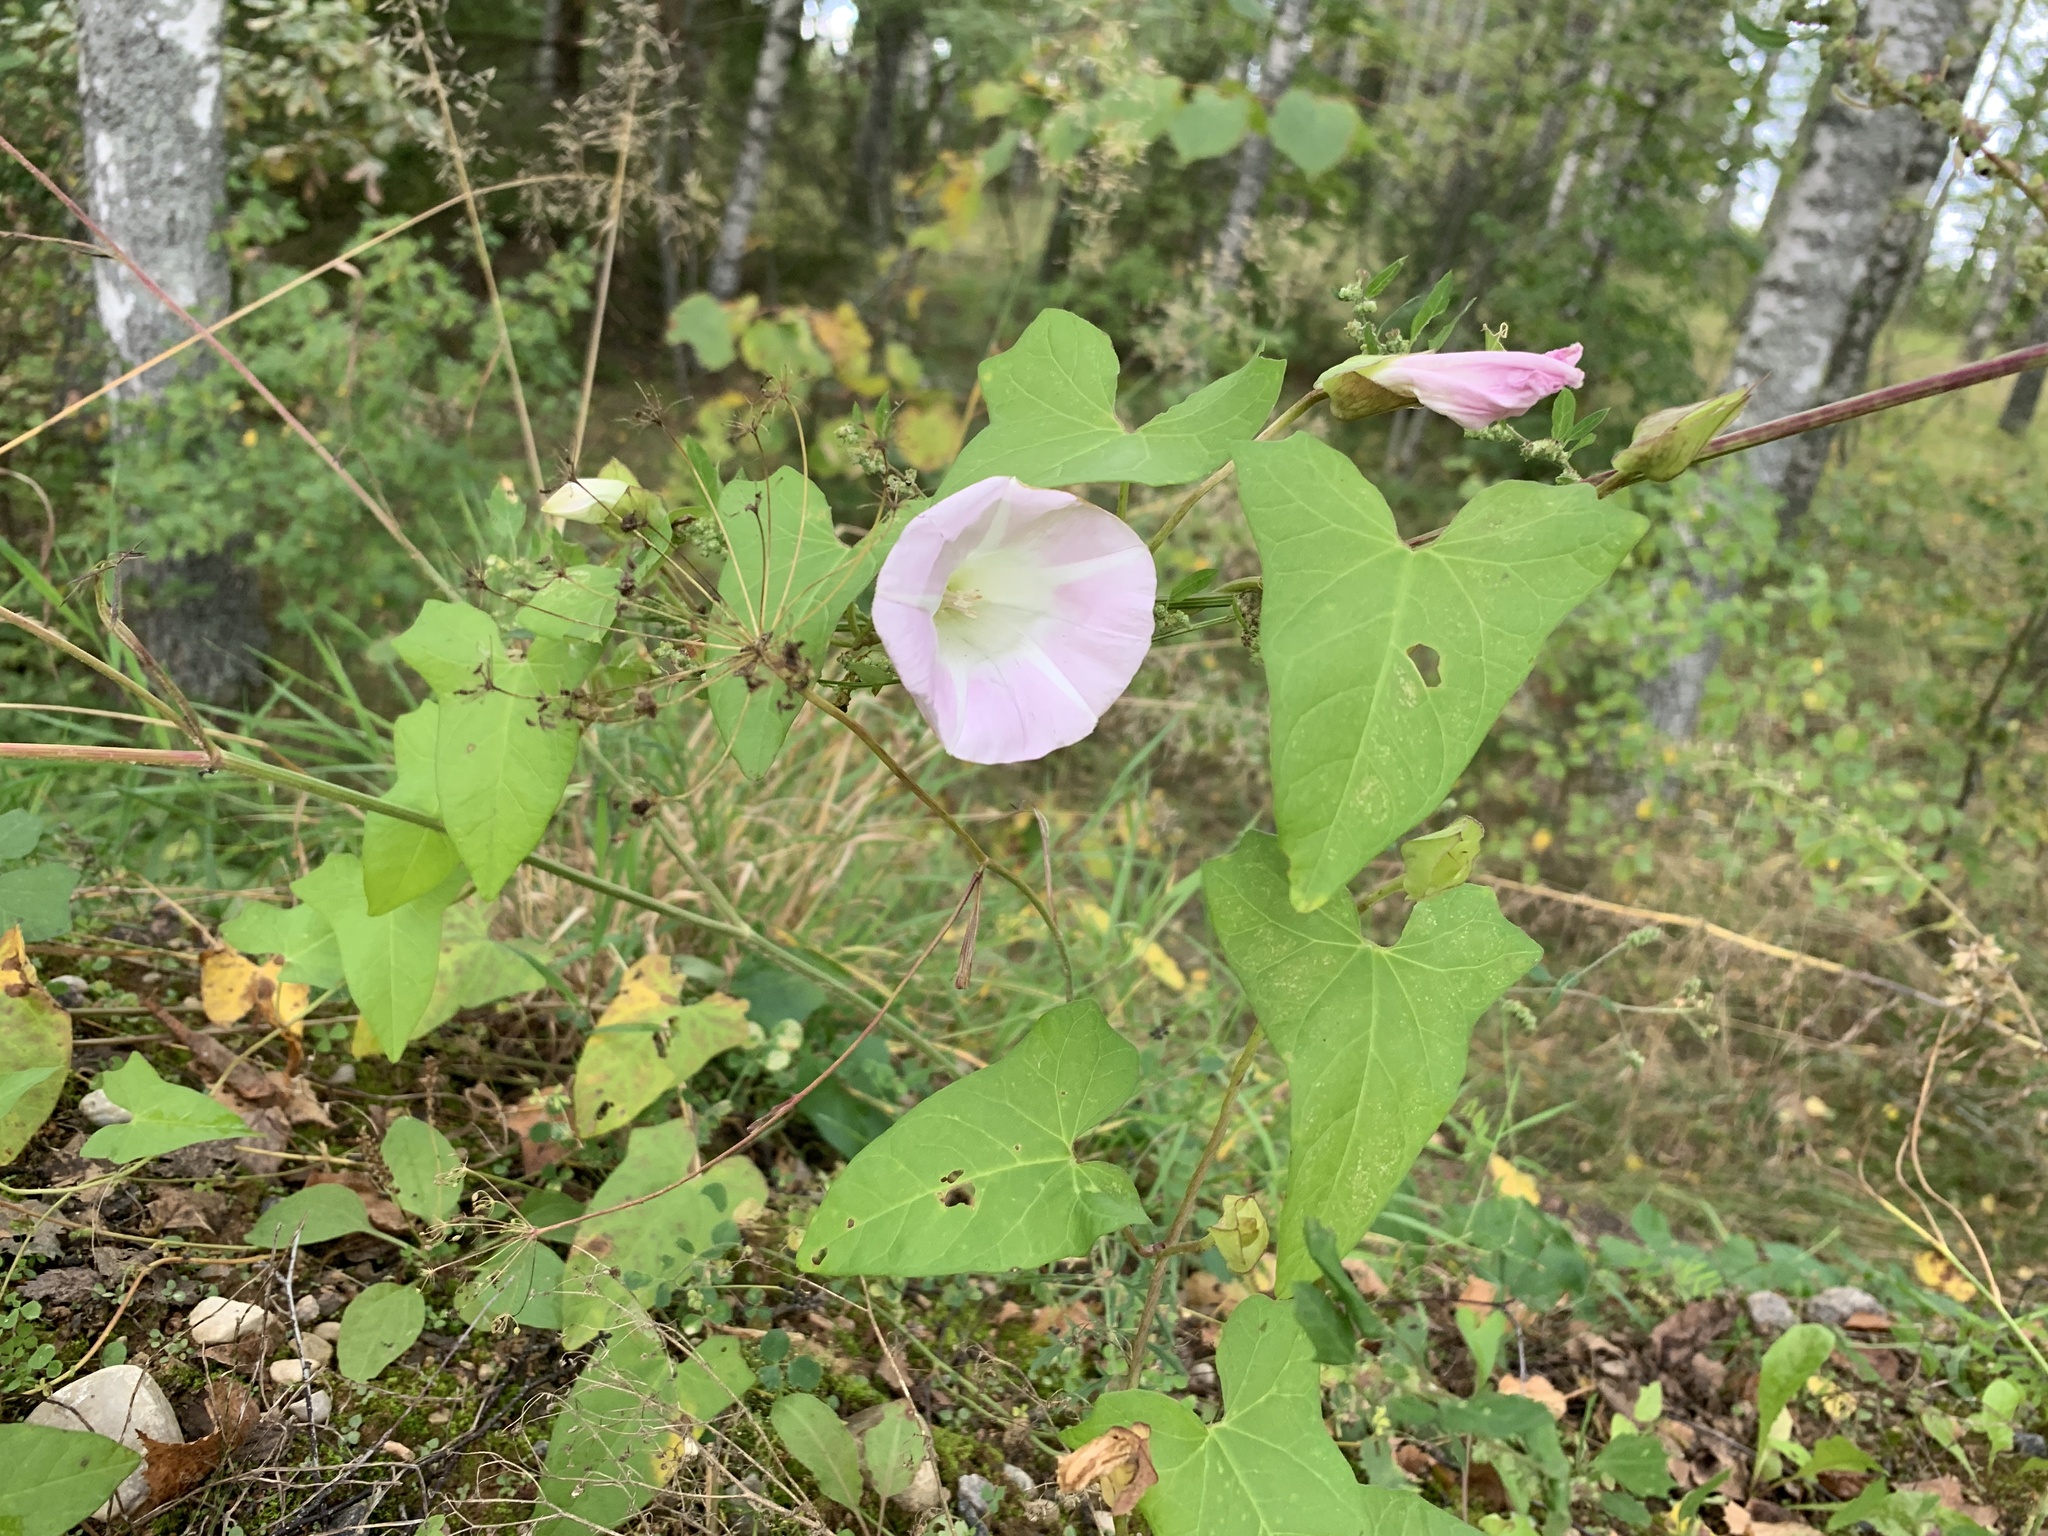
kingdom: Plantae
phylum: Tracheophyta
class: Magnoliopsida
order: Solanales
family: Convolvulaceae
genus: Calystegia
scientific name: Calystegia sepium
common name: Hedge bindweed
